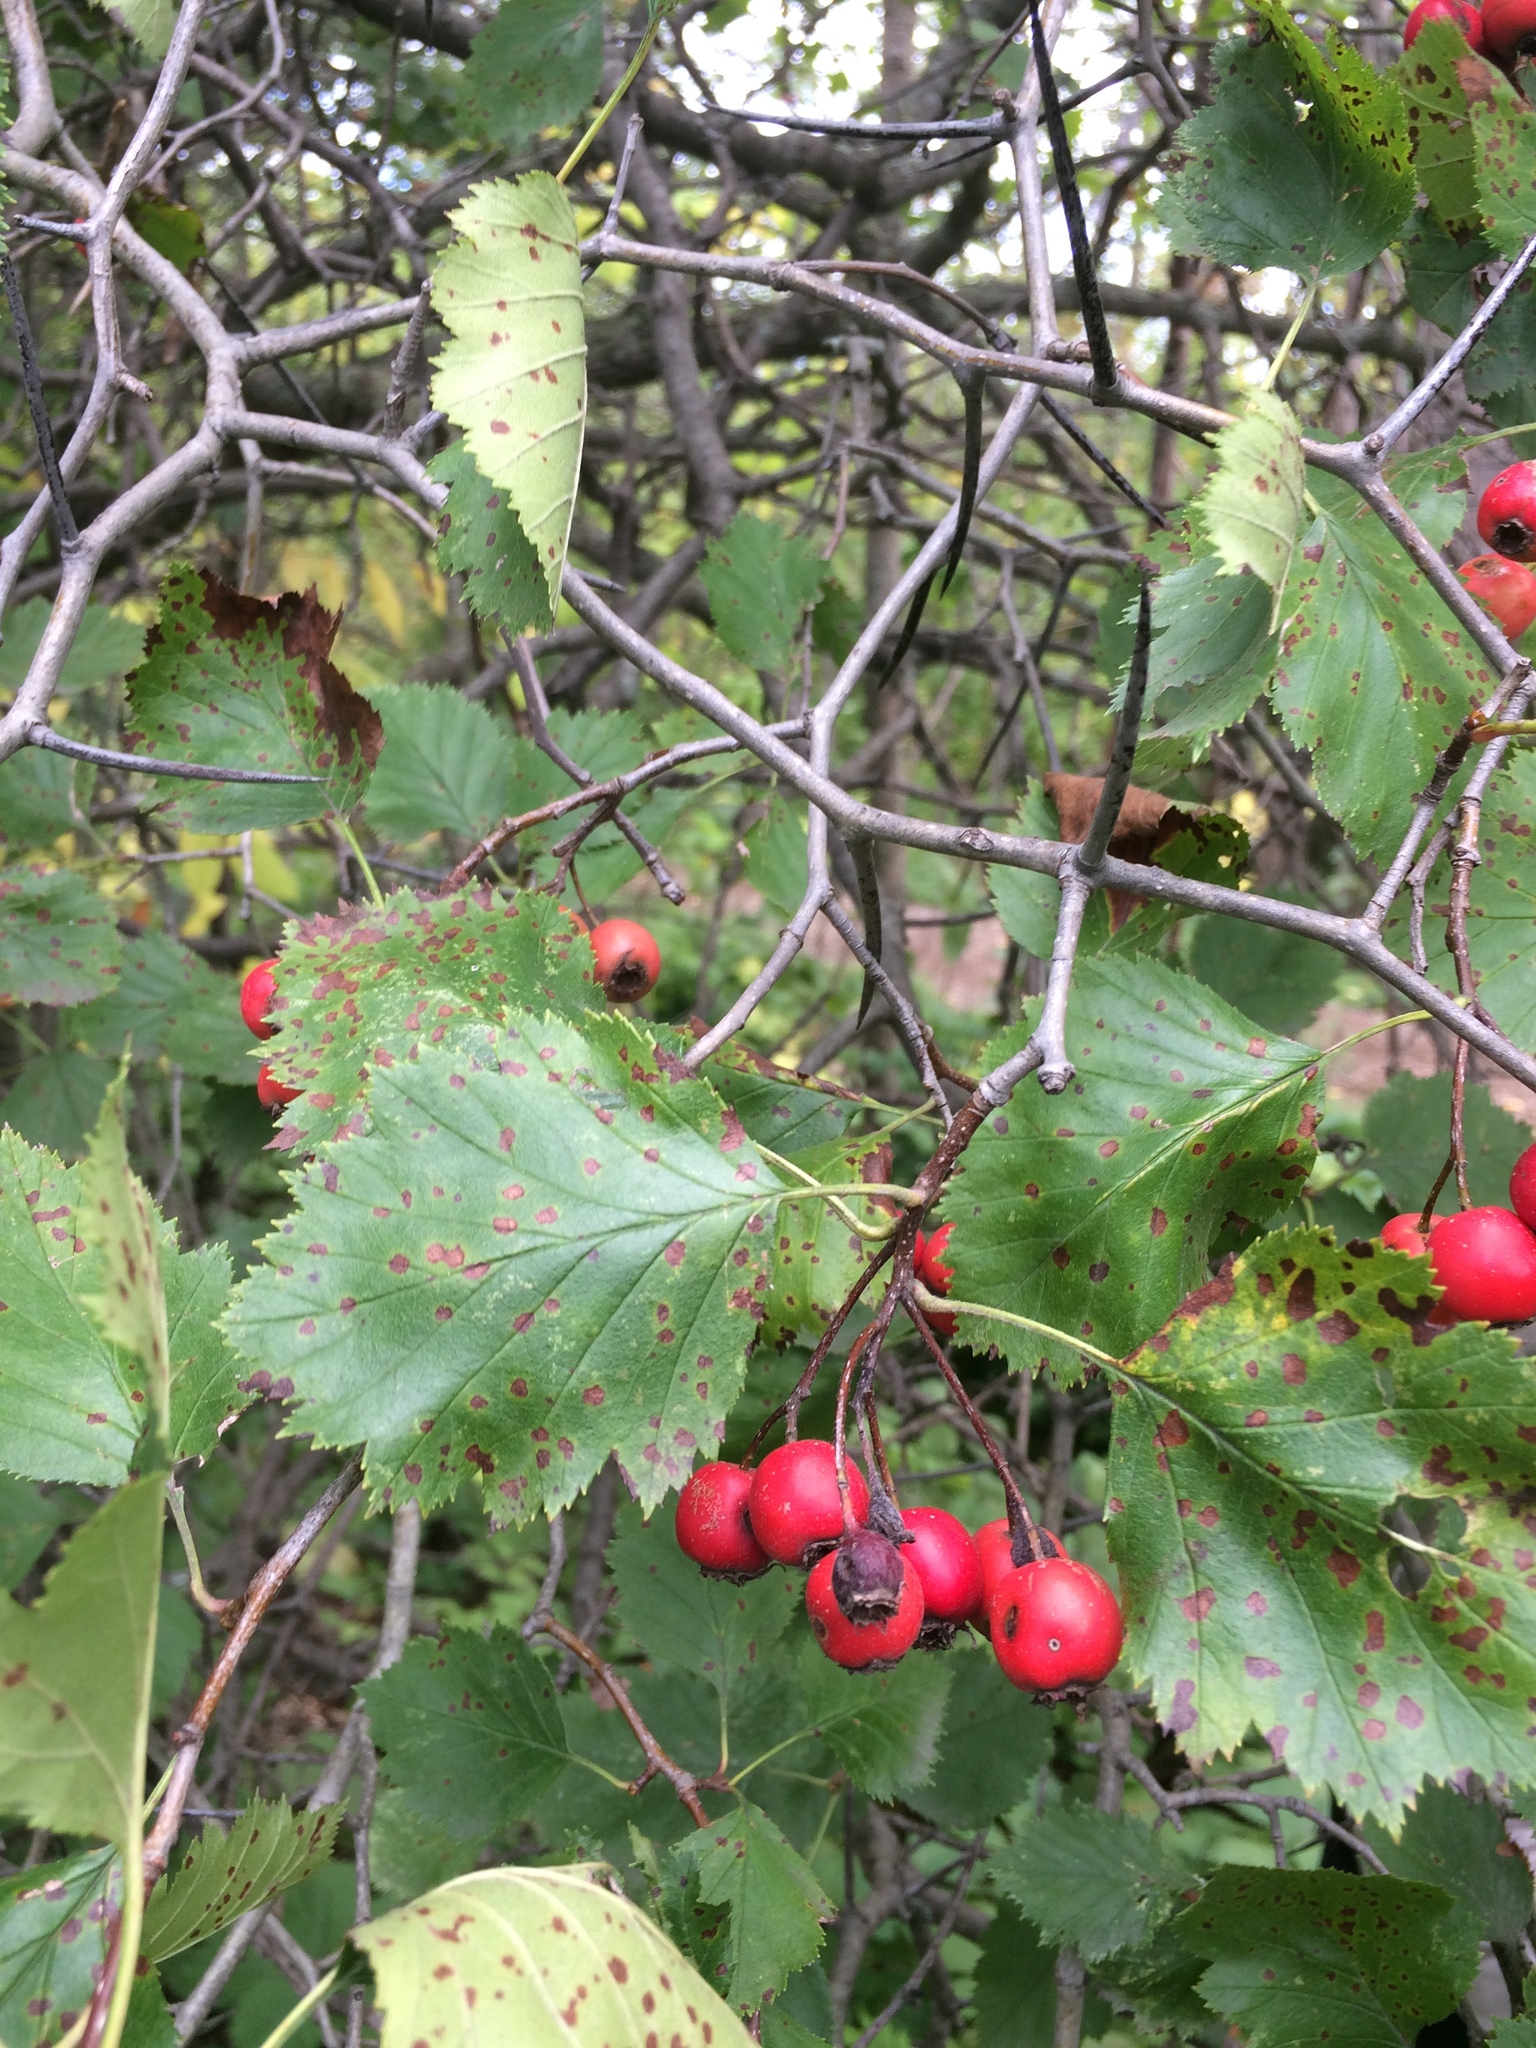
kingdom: Plantae
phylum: Tracheophyta
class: Magnoliopsida
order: Rosales
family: Rosaceae
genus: Crataegus
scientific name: Crataegus submollis
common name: Hairy cockspurthorn
